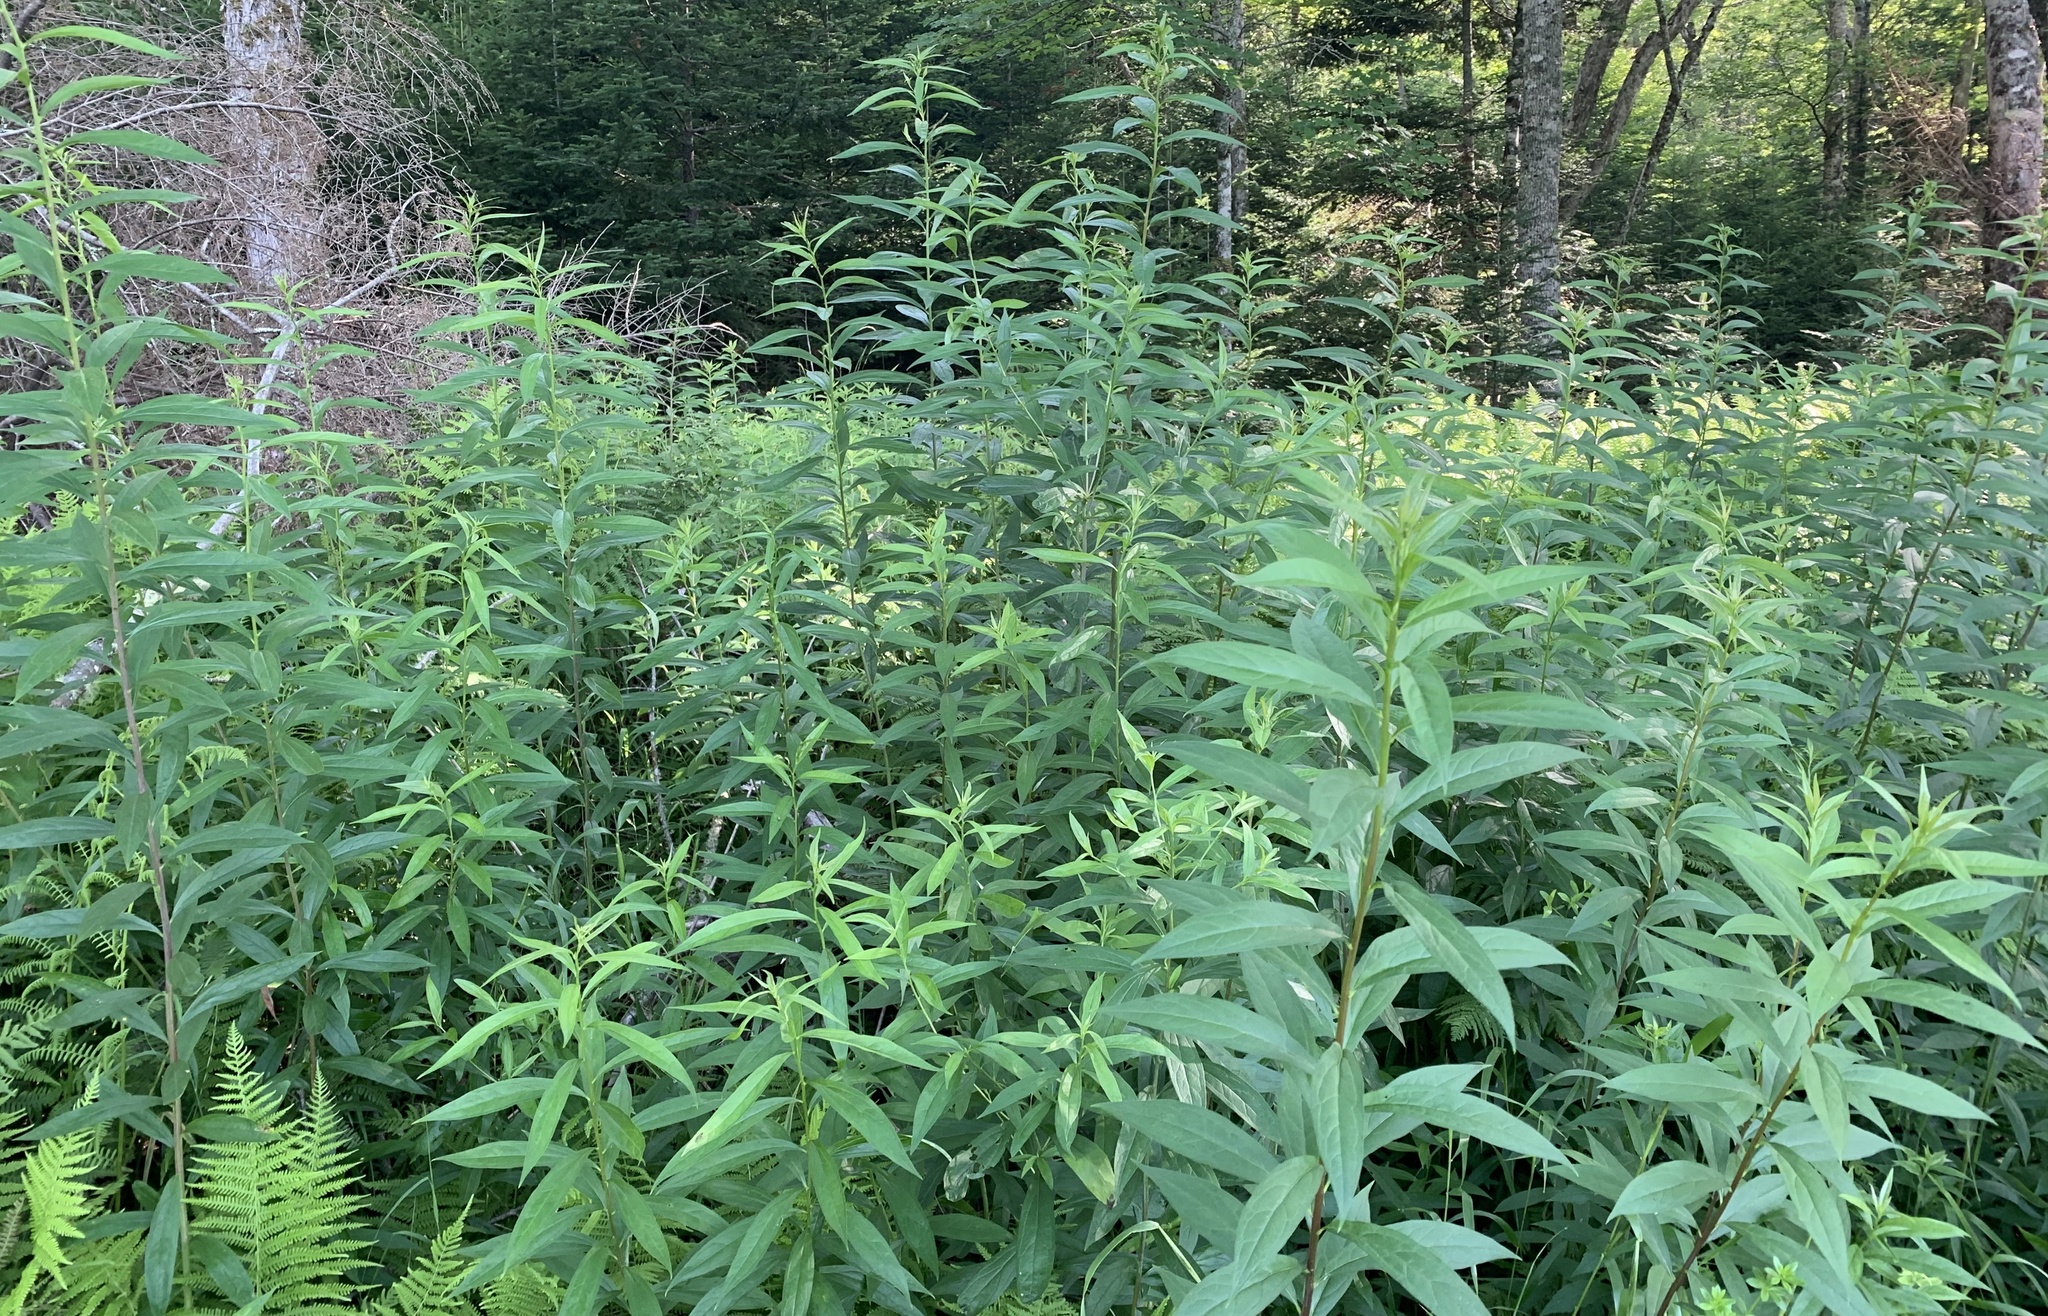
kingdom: Plantae
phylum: Tracheophyta
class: Magnoliopsida
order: Asterales
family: Asteraceae
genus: Doellingeria
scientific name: Doellingeria umbellata
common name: Flat-top white aster
